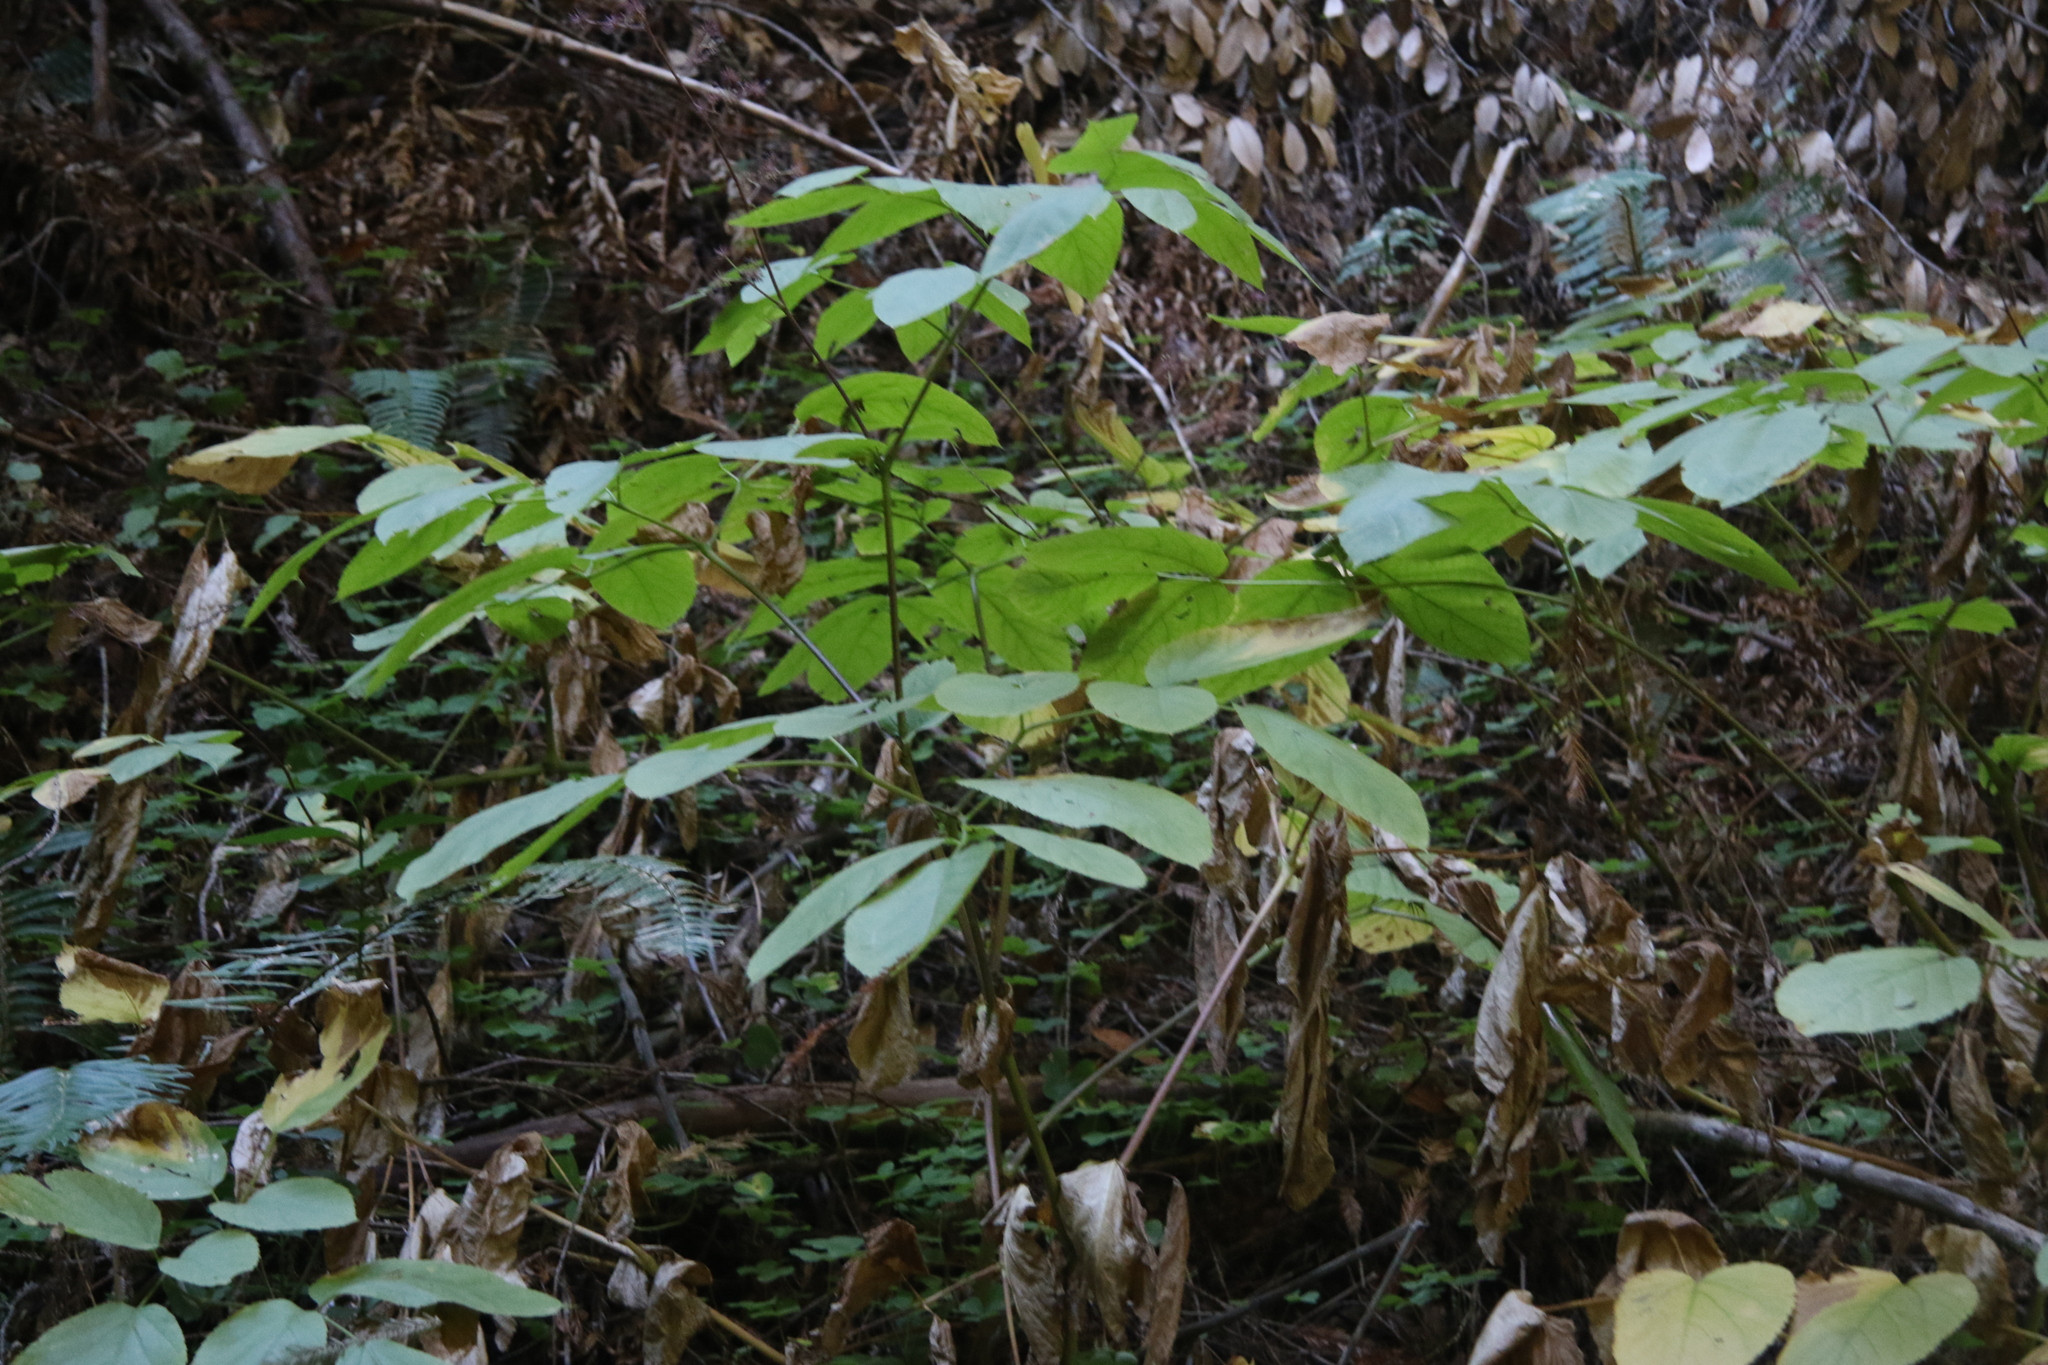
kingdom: Plantae
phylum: Tracheophyta
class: Magnoliopsida
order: Apiales
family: Araliaceae
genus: Aralia
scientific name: Aralia californica
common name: California-ginseng
